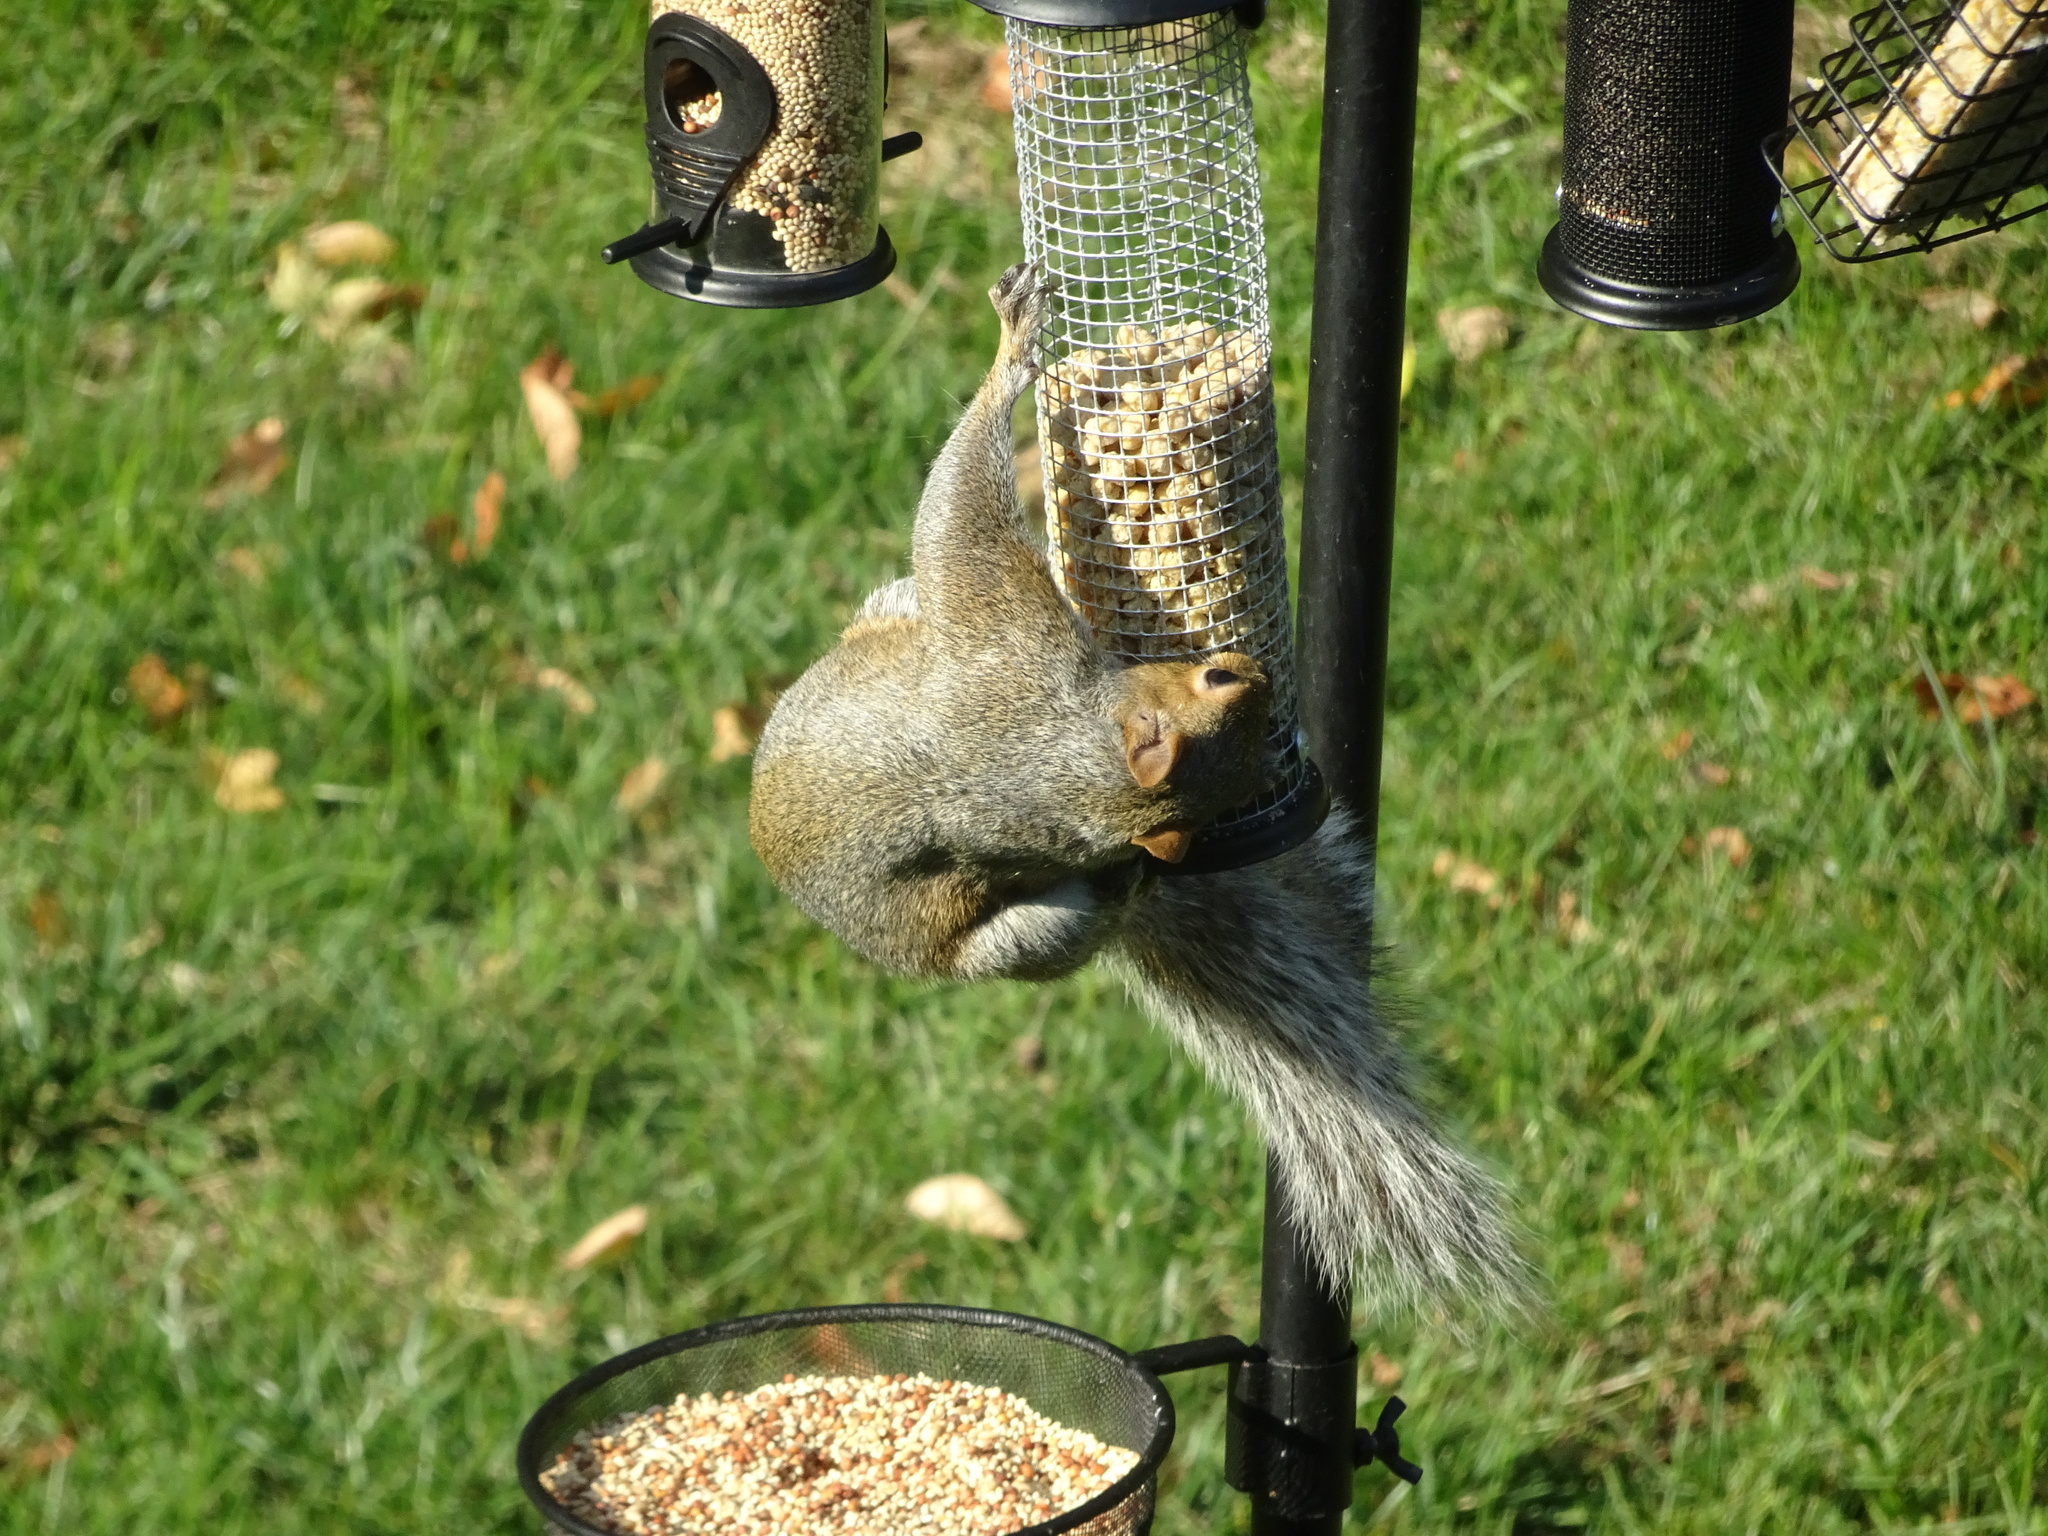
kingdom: Animalia
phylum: Chordata
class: Mammalia
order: Rodentia
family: Sciuridae
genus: Sciurus
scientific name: Sciurus carolinensis
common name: Eastern gray squirrel
